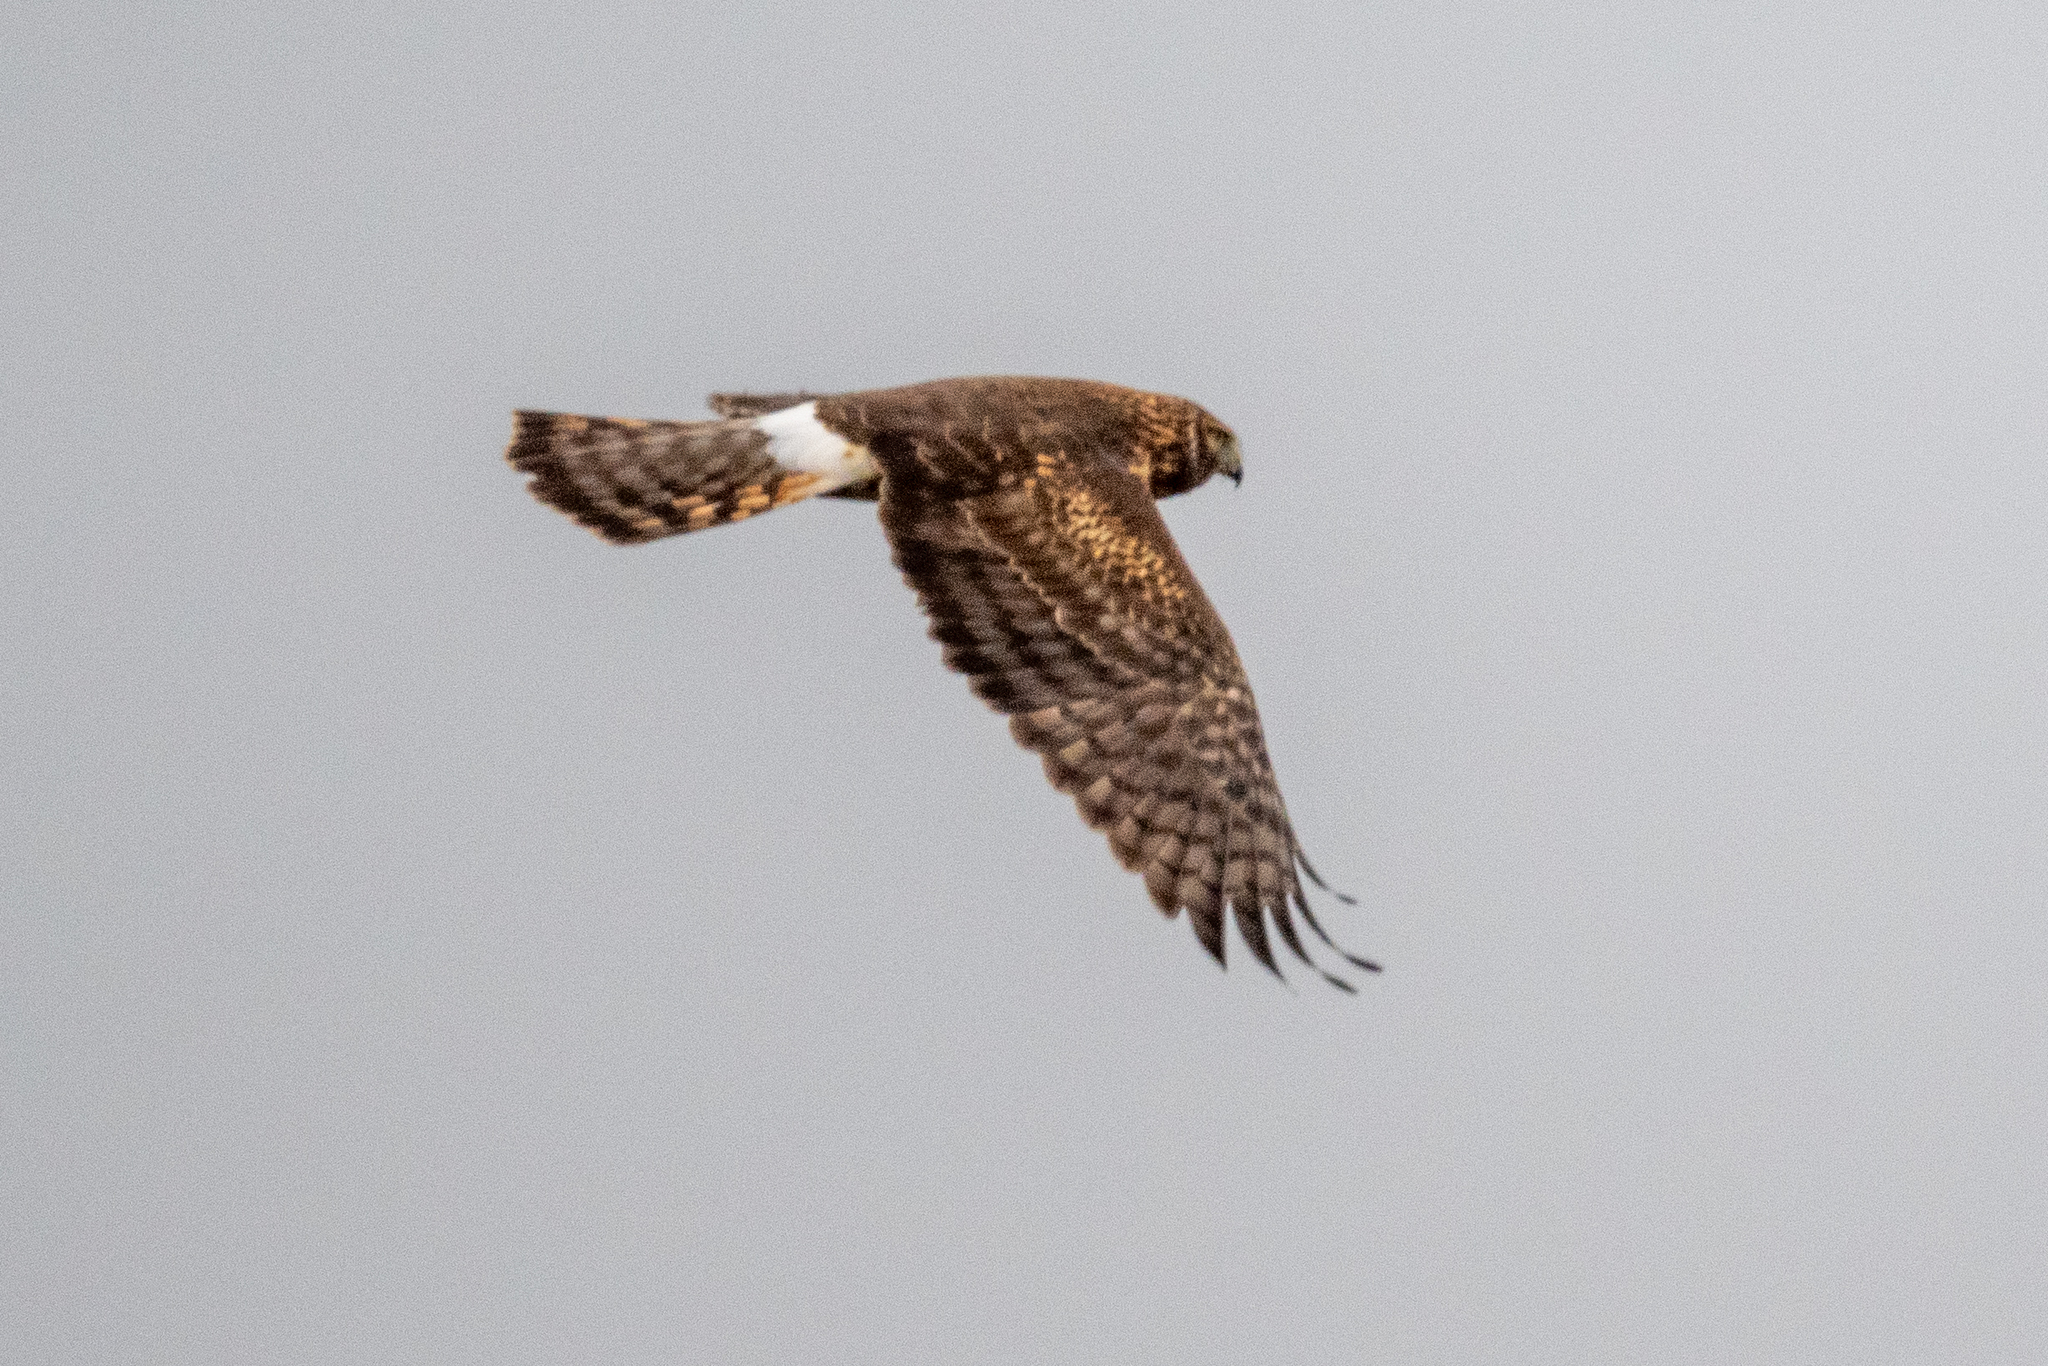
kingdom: Animalia
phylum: Chordata
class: Aves
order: Accipitriformes
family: Accipitridae
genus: Circus
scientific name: Circus cyaneus
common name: Hen harrier
